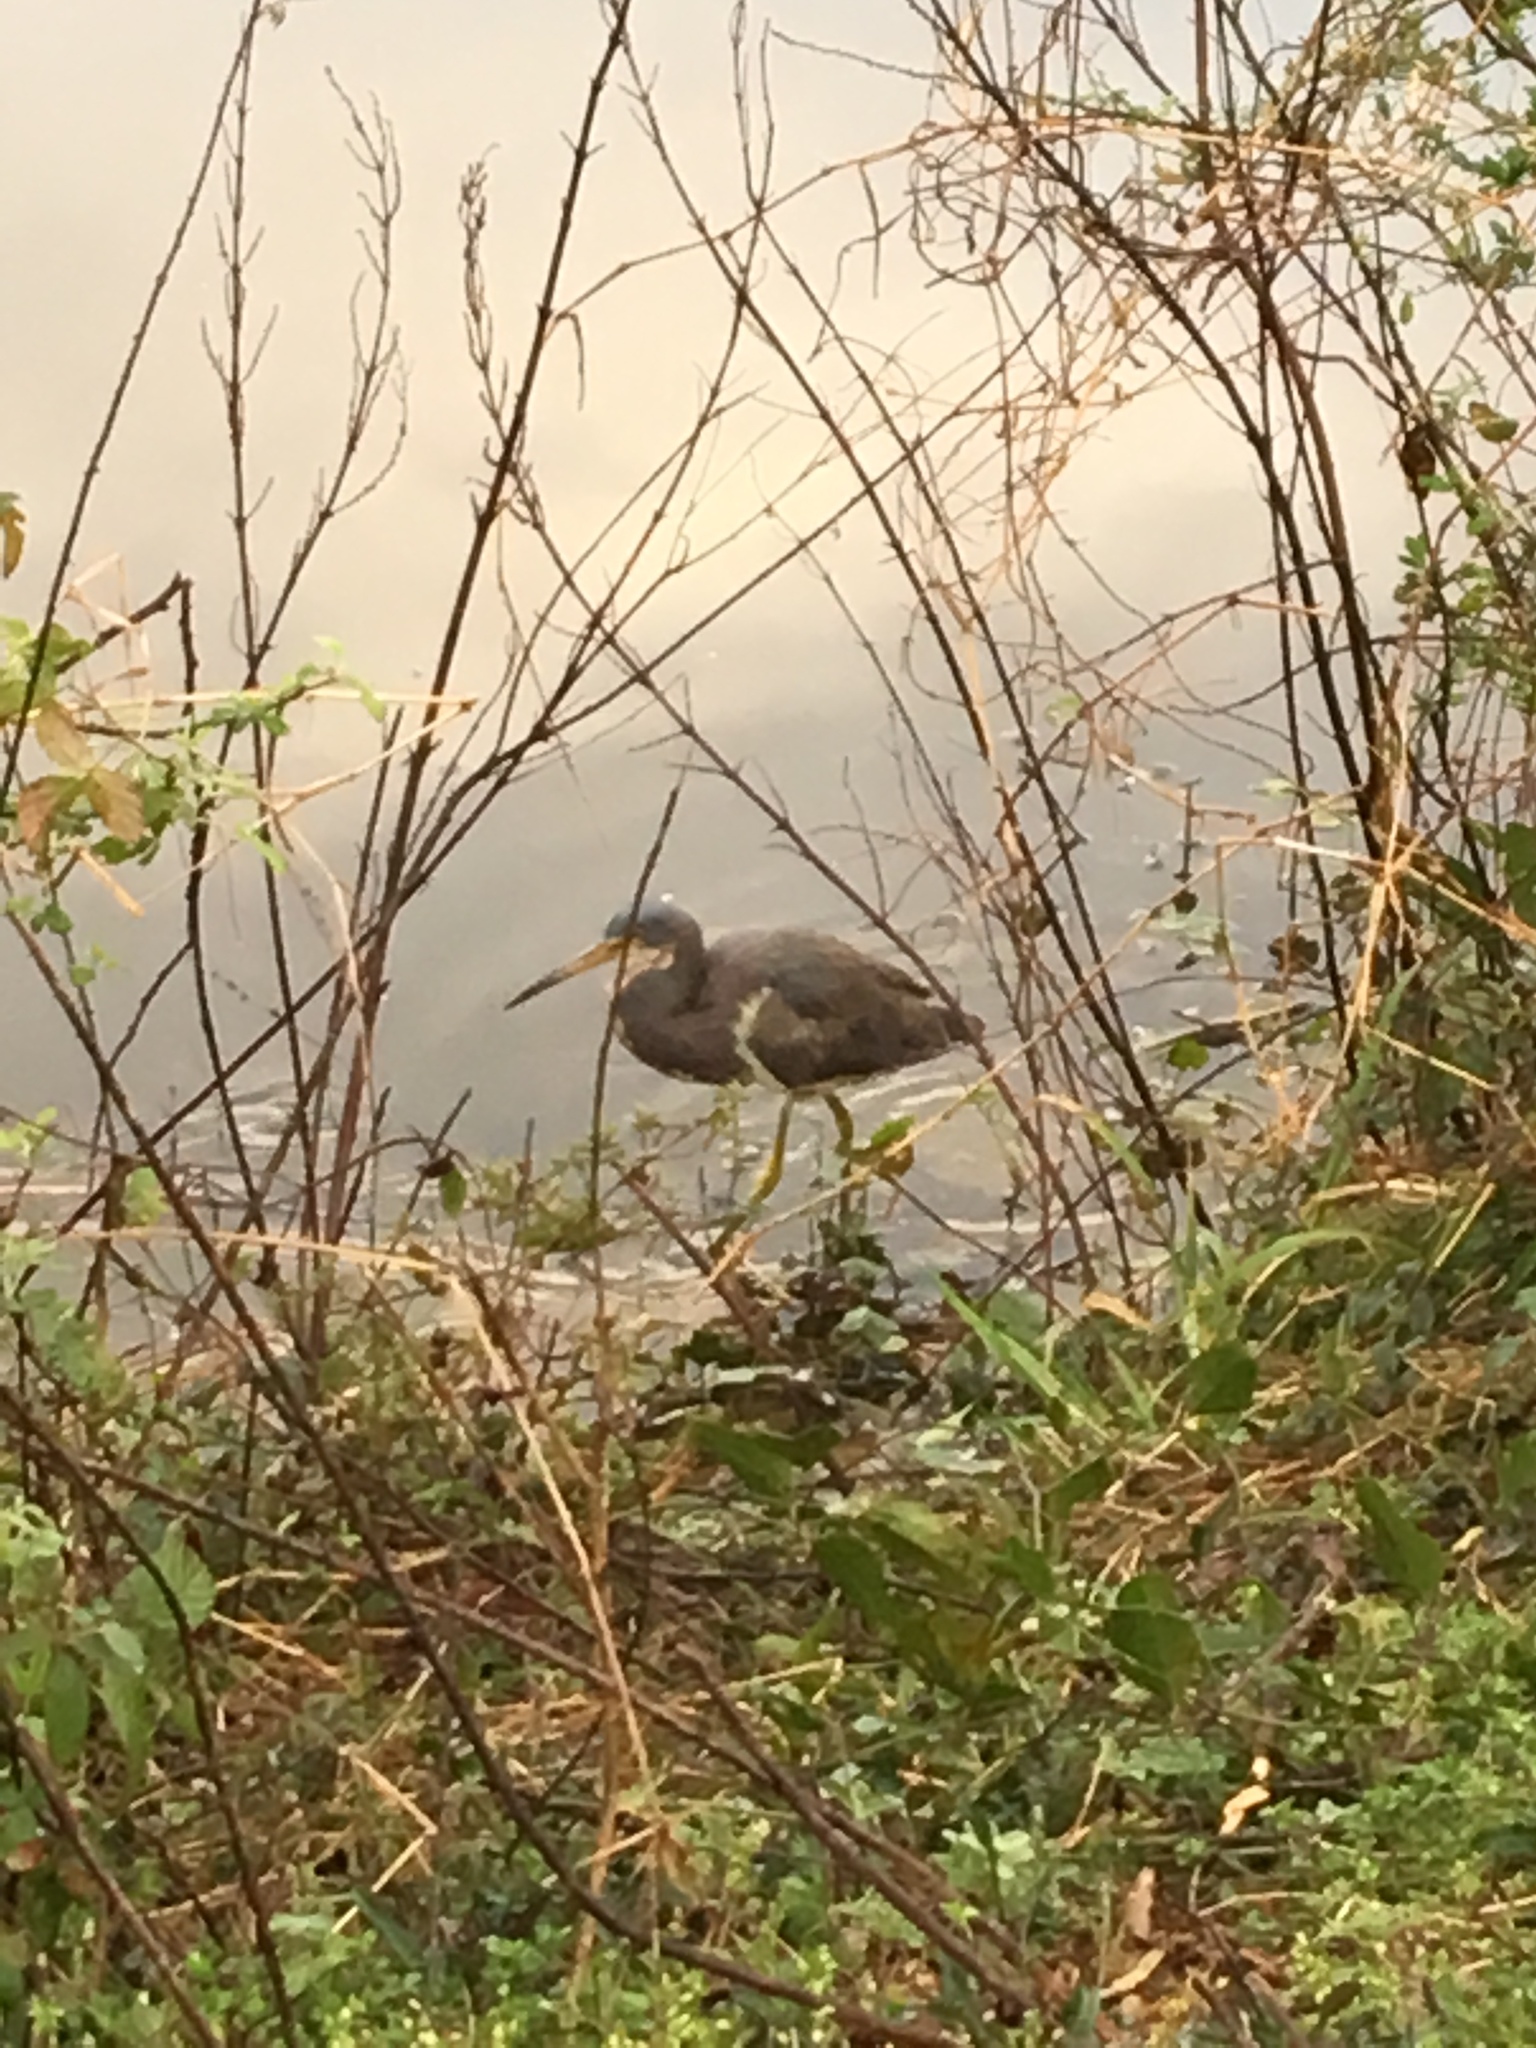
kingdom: Animalia
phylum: Chordata
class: Aves
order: Pelecaniformes
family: Ardeidae
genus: Egretta
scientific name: Egretta tricolor
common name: Tricolored heron
